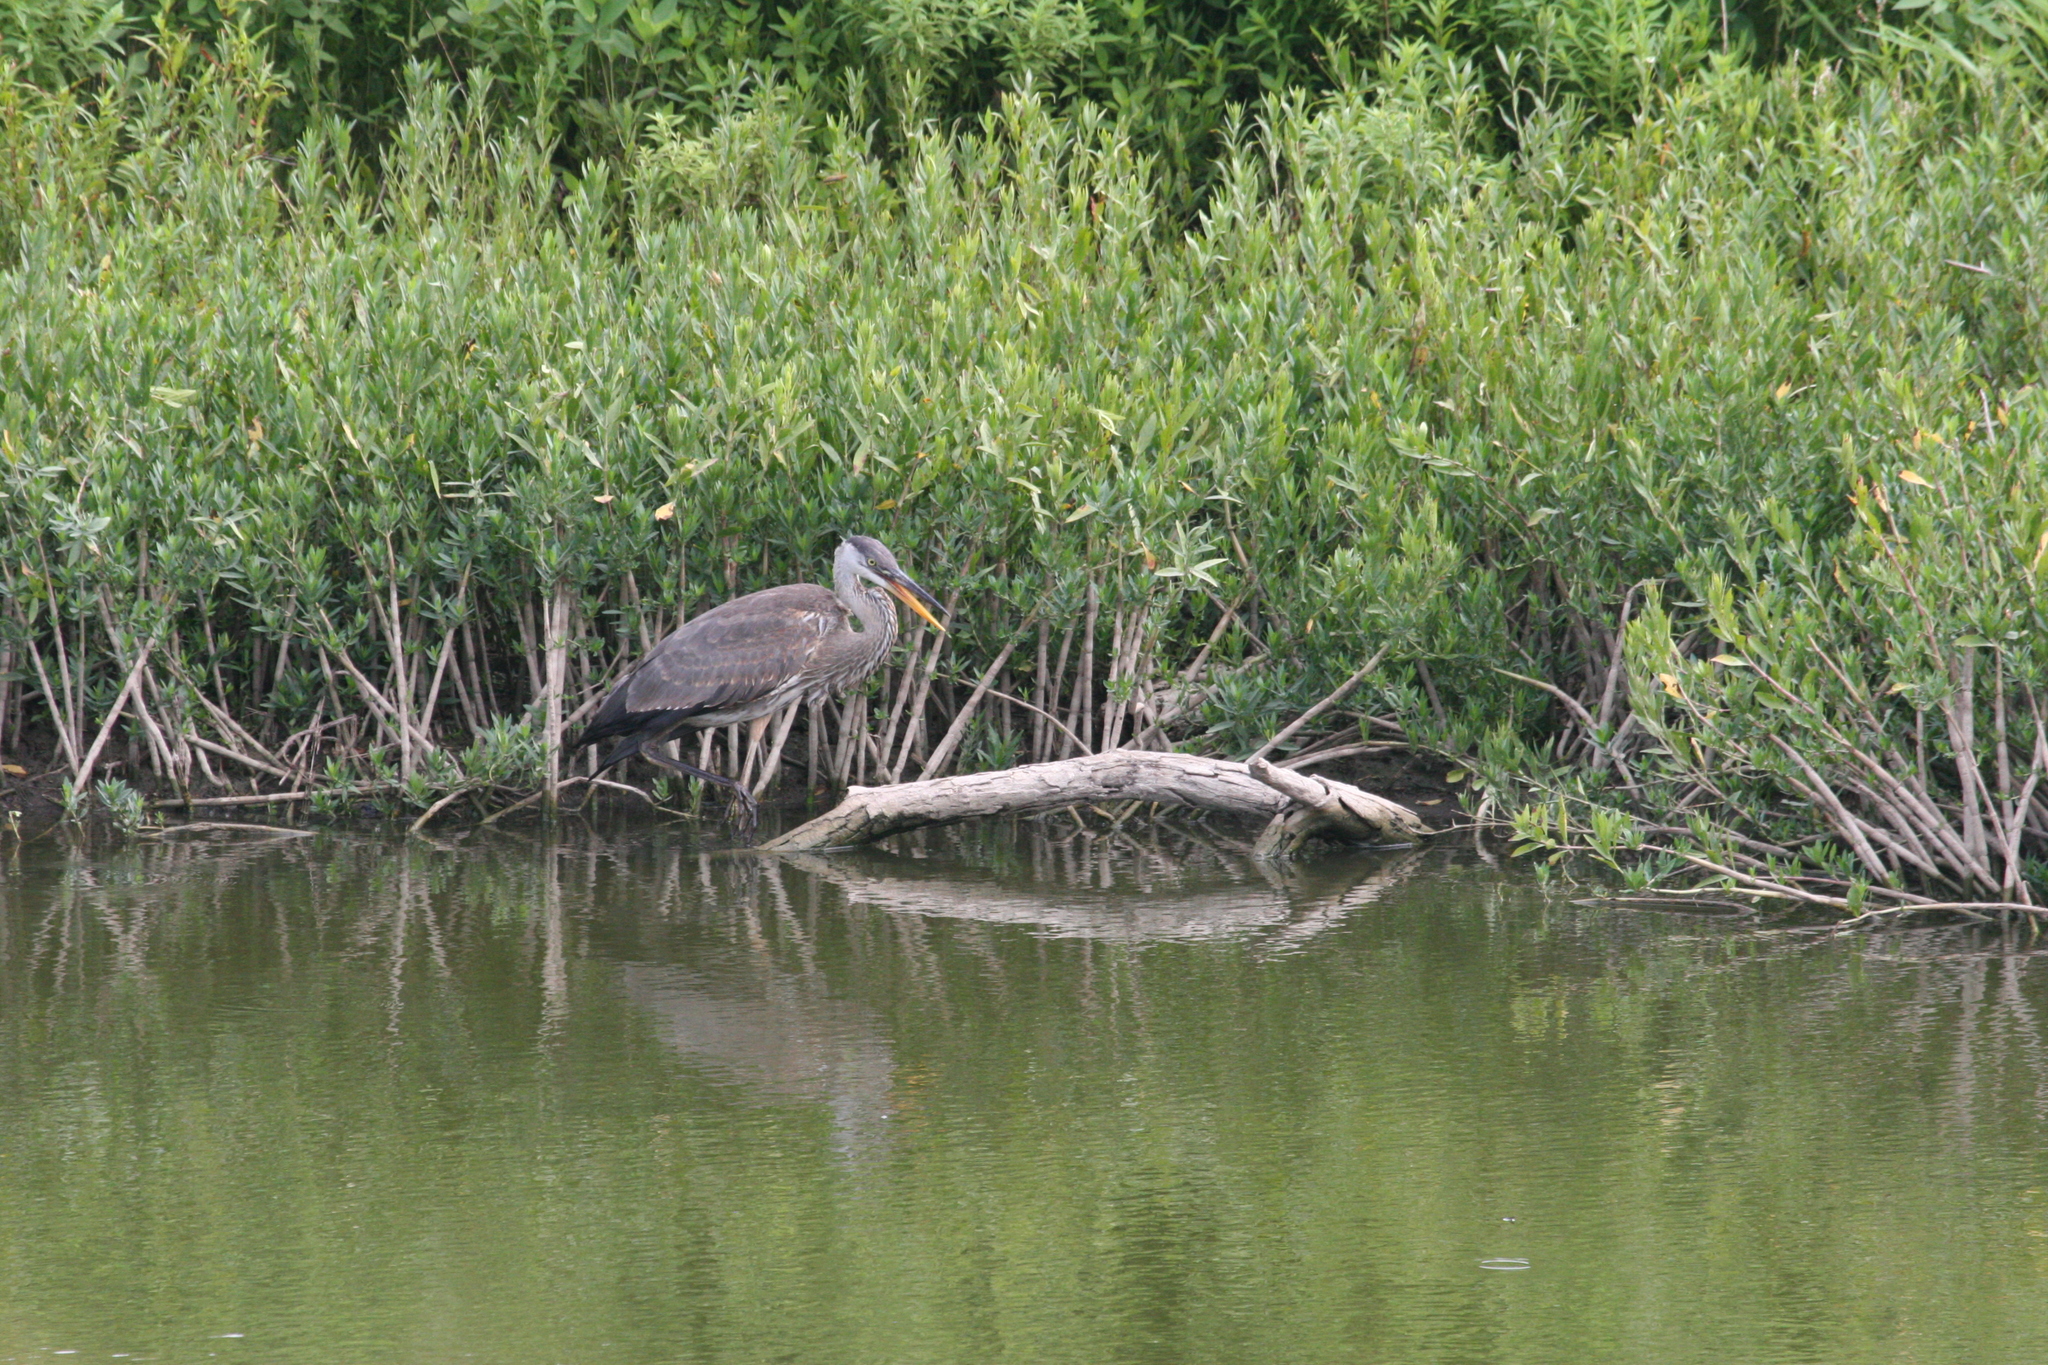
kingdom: Animalia
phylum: Chordata
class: Aves
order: Pelecaniformes
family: Ardeidae
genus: Ardea
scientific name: Ardea herodias
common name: Great blue heron
